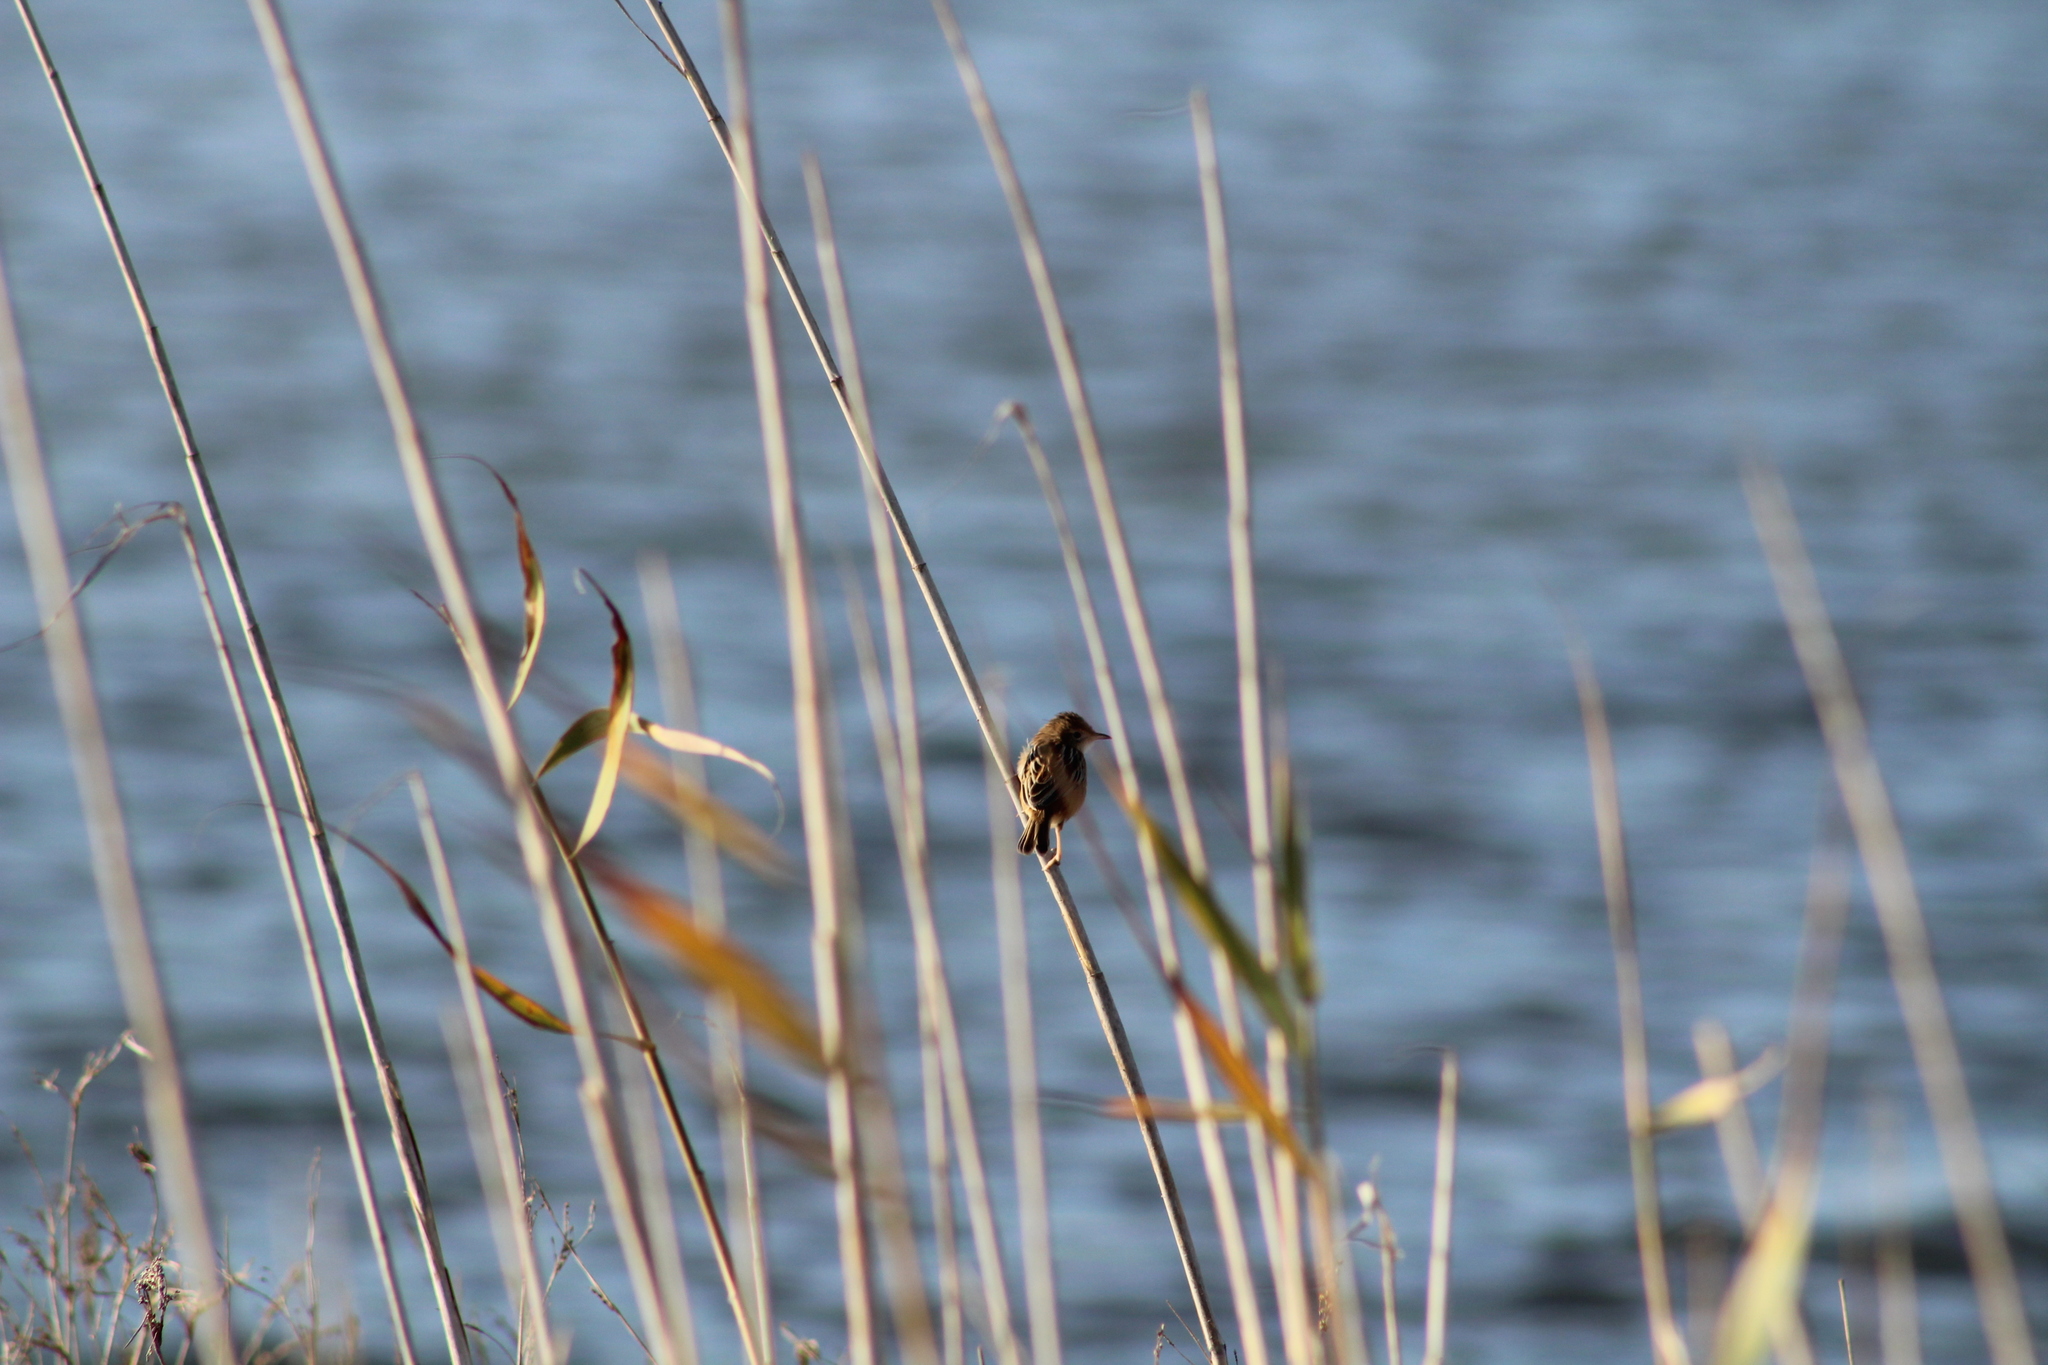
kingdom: Animalia
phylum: Chordata
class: Aves
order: Passeriformes
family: Cisticolidae
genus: Cisticola
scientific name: Cisticola juncidis
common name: Zitting cisticola
